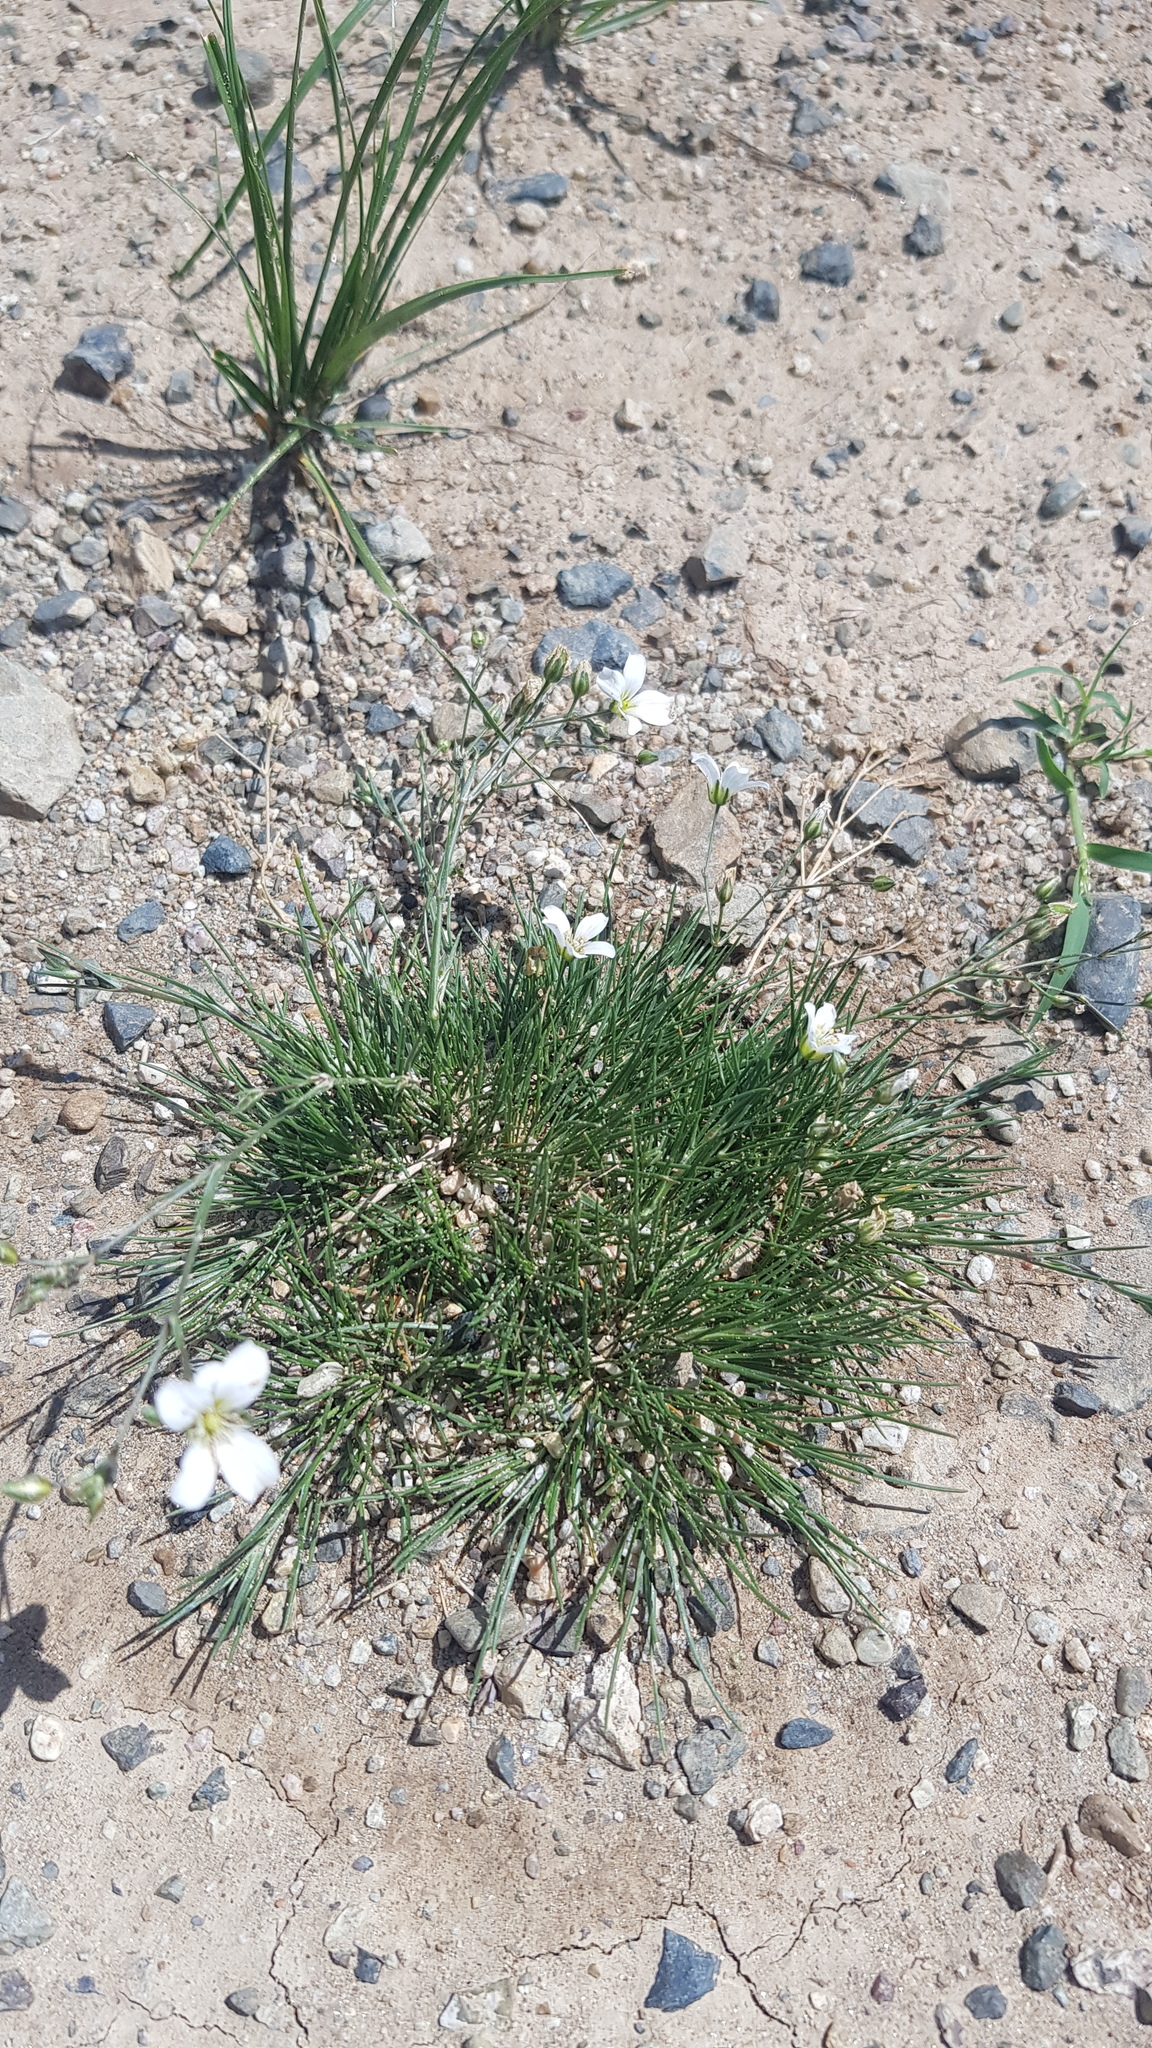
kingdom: Plantae
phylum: Tracheophyta
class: Magnoliopsida
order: Caryophyllales
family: Caryophyllaceae
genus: Eremogone
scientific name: Eremogone meyeri
